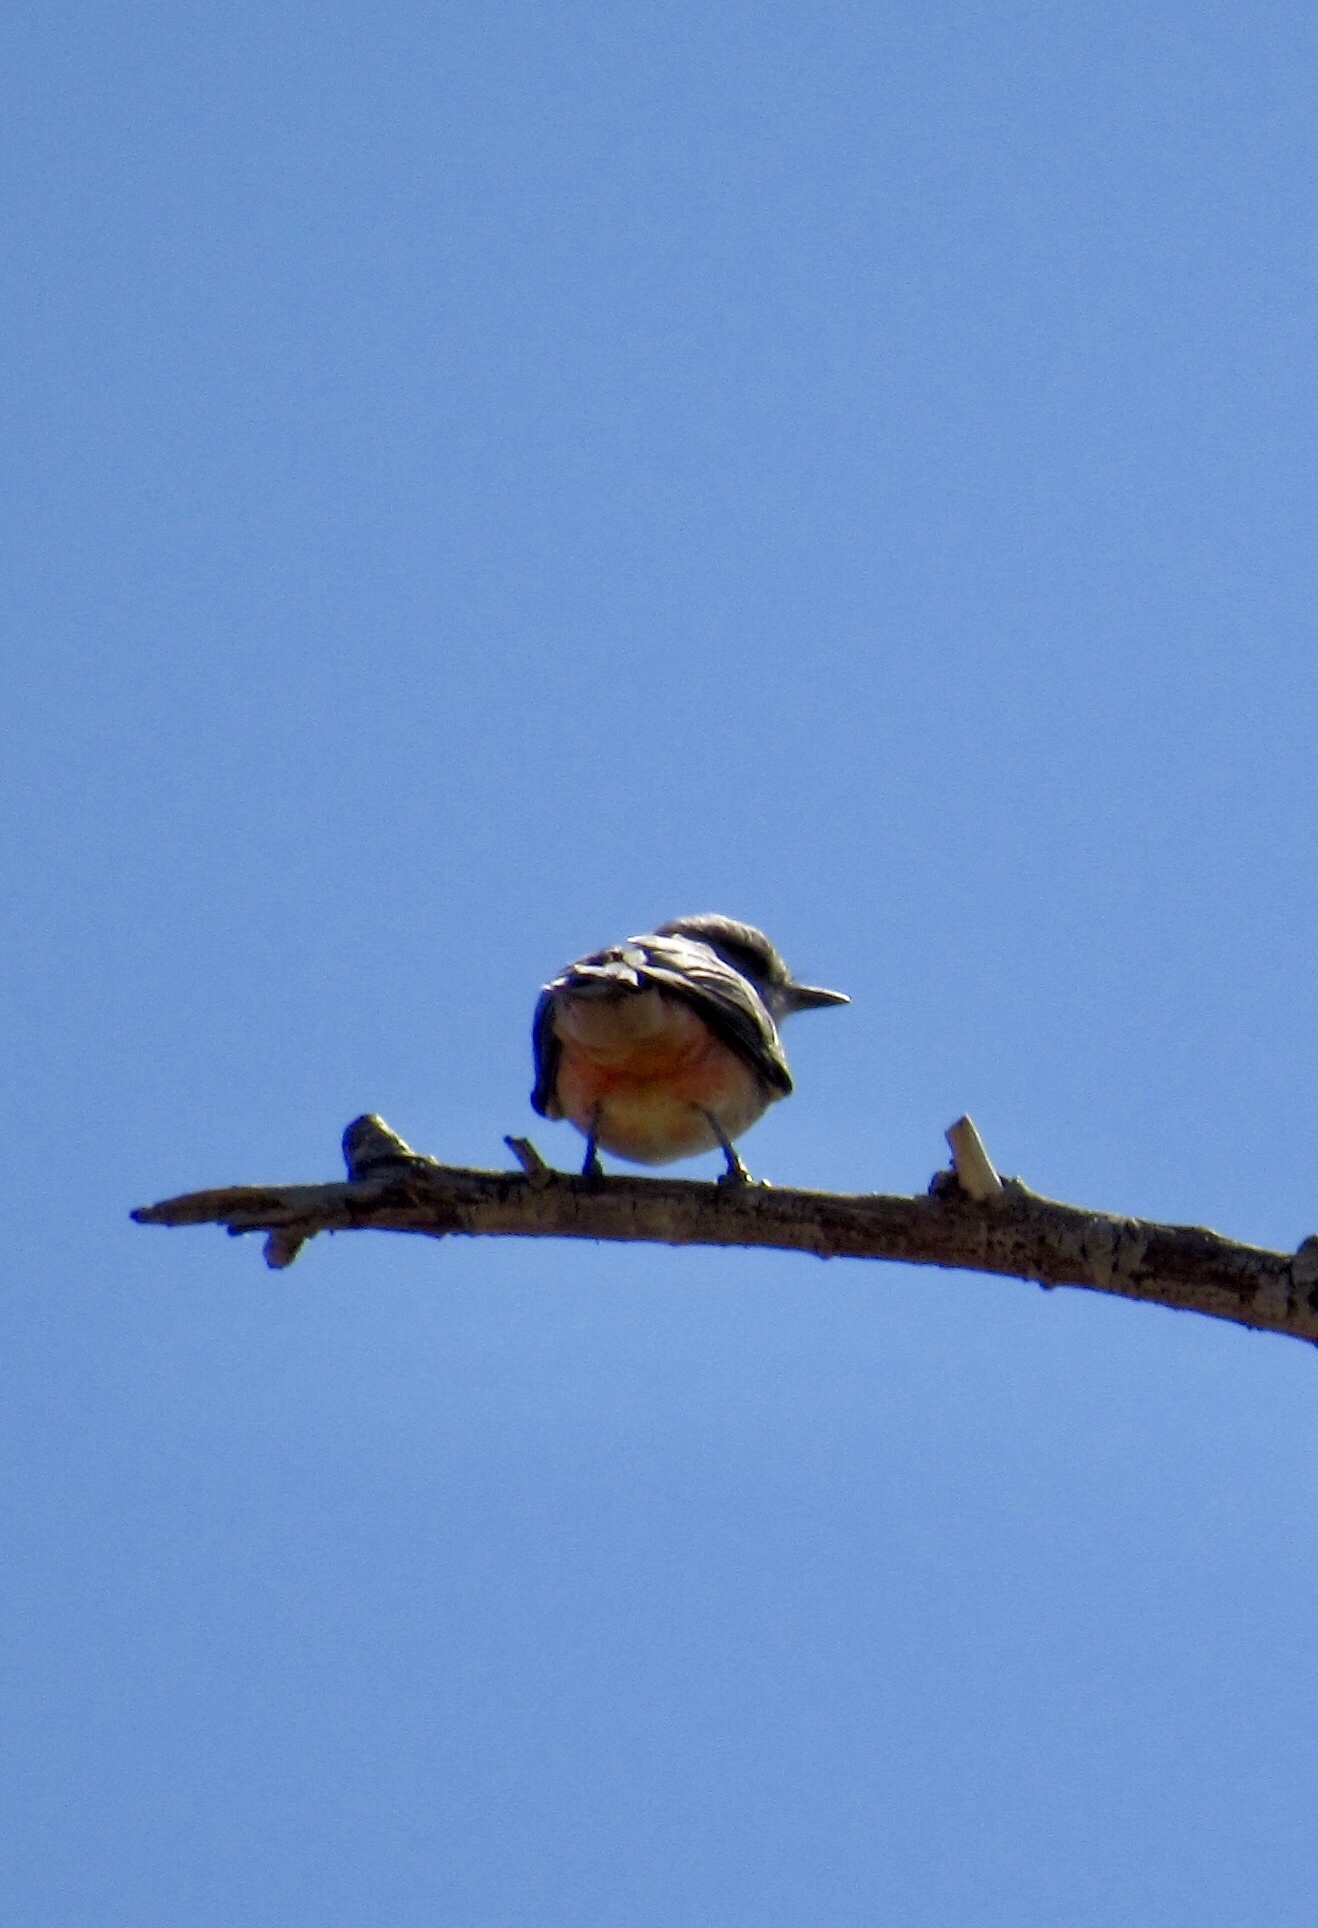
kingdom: Animalia
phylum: Chordata
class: Aves
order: Passeriformes
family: Tyrannidae
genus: Pyrocephalus
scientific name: Pyrocephalus rubinus
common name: Vermilion flycatcher
